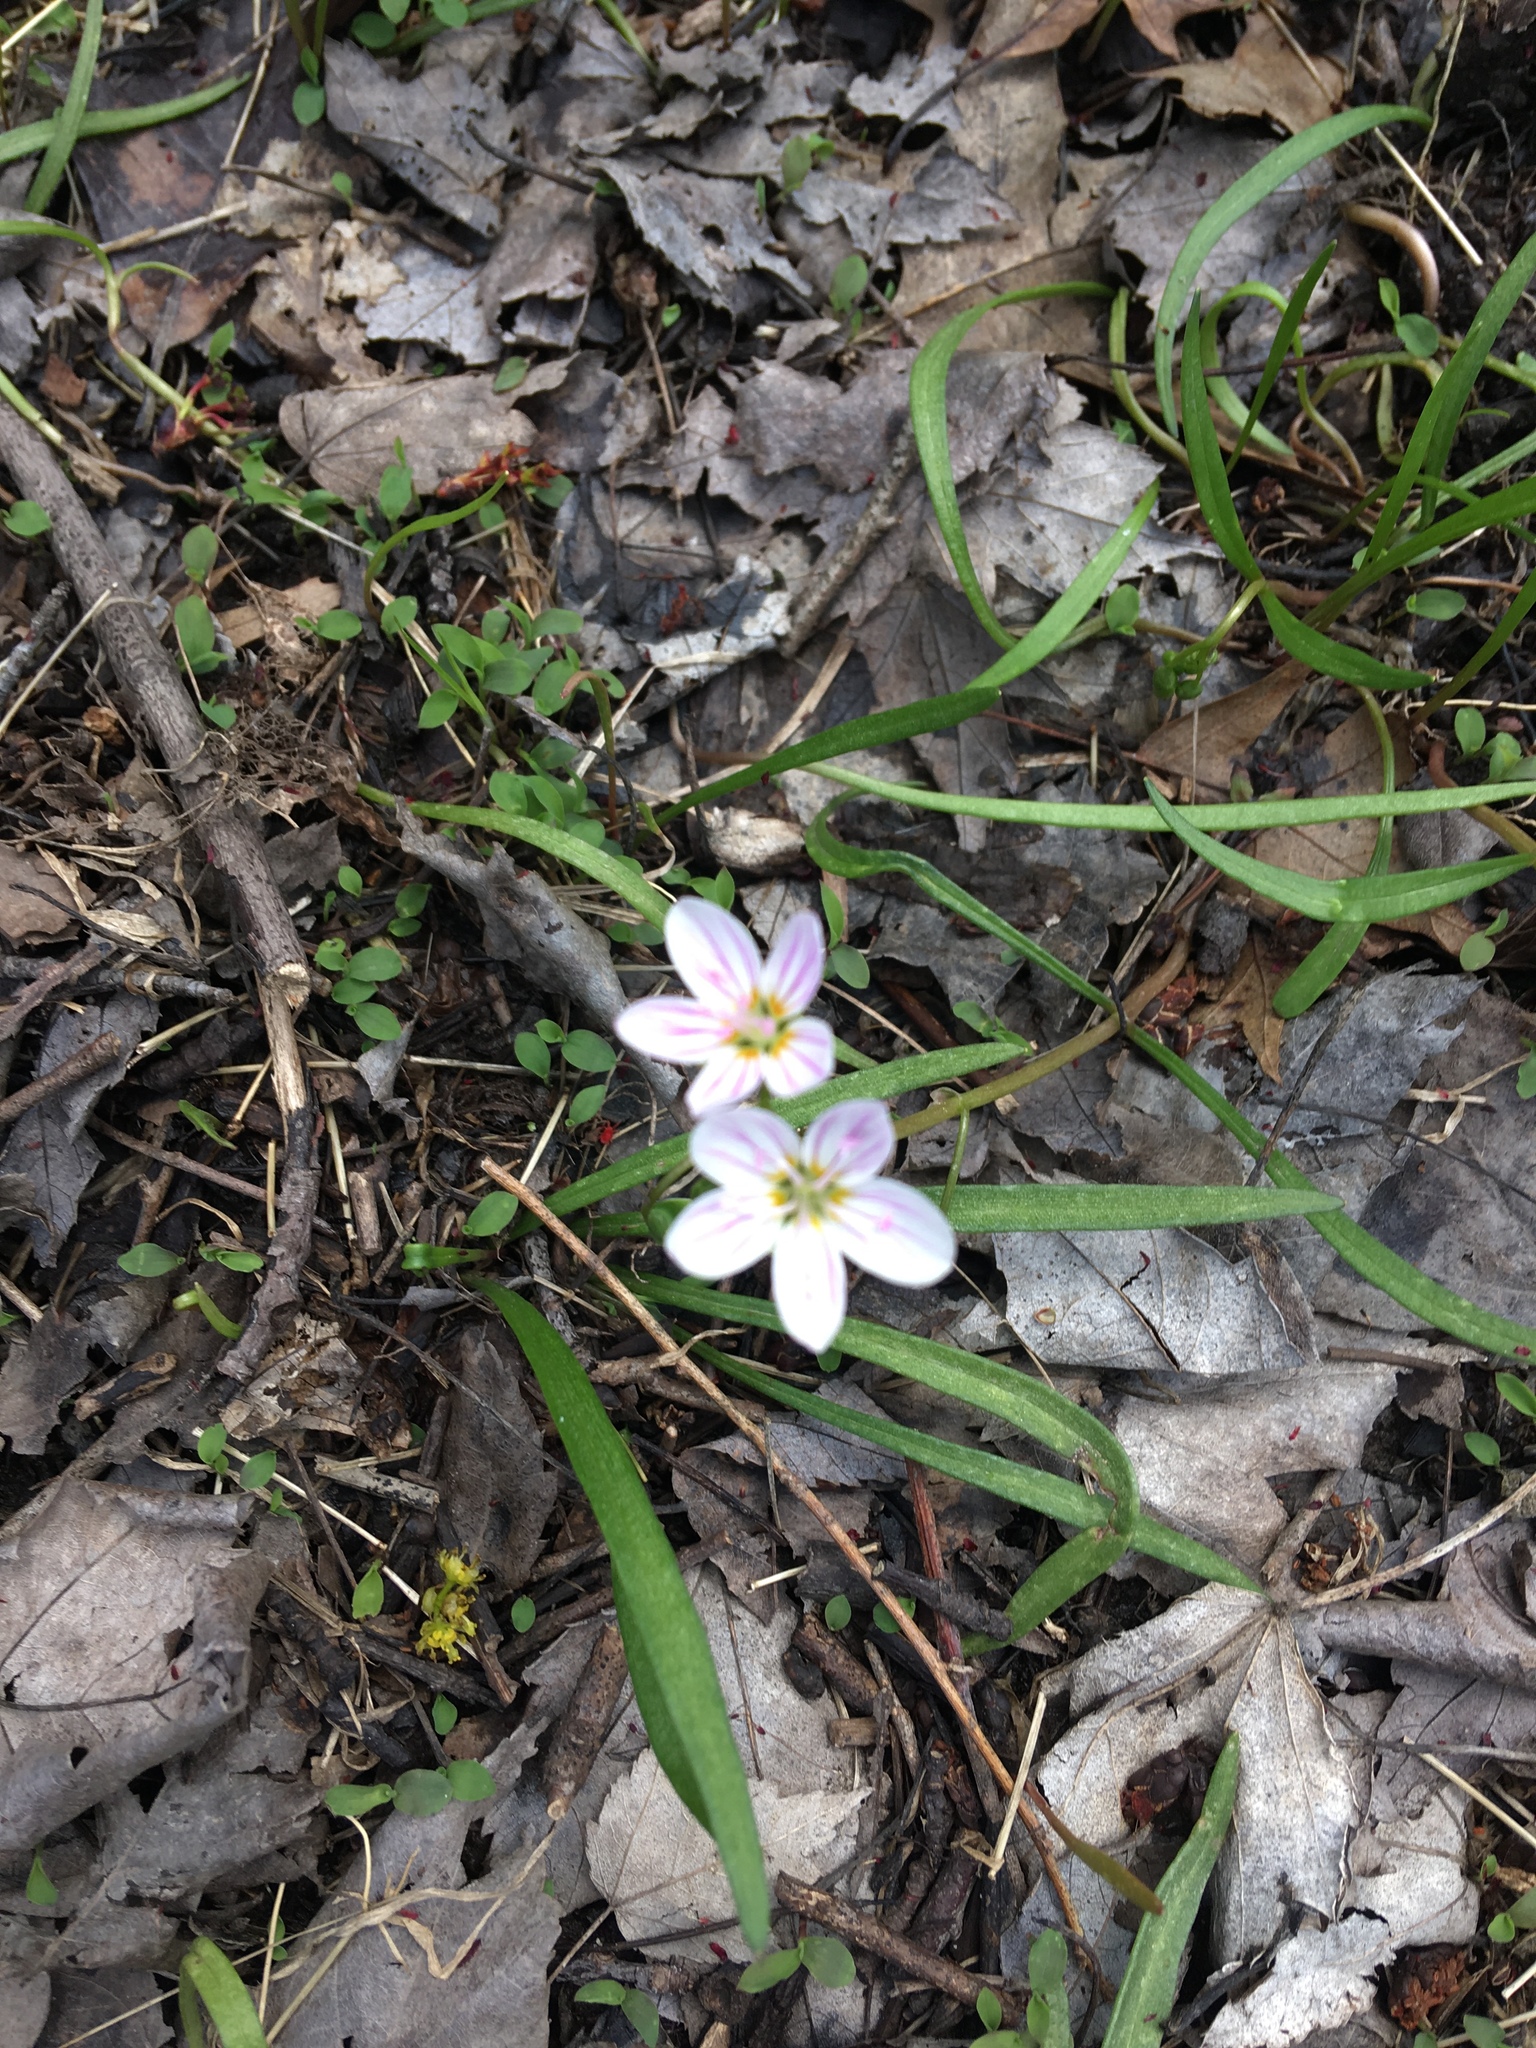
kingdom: Plantae
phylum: Tracheophyta
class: Magnoliopsida
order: Caryophyllales
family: Montiaceae
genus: Claytonia
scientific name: Claytonia virginica
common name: Virginia springbeauty
